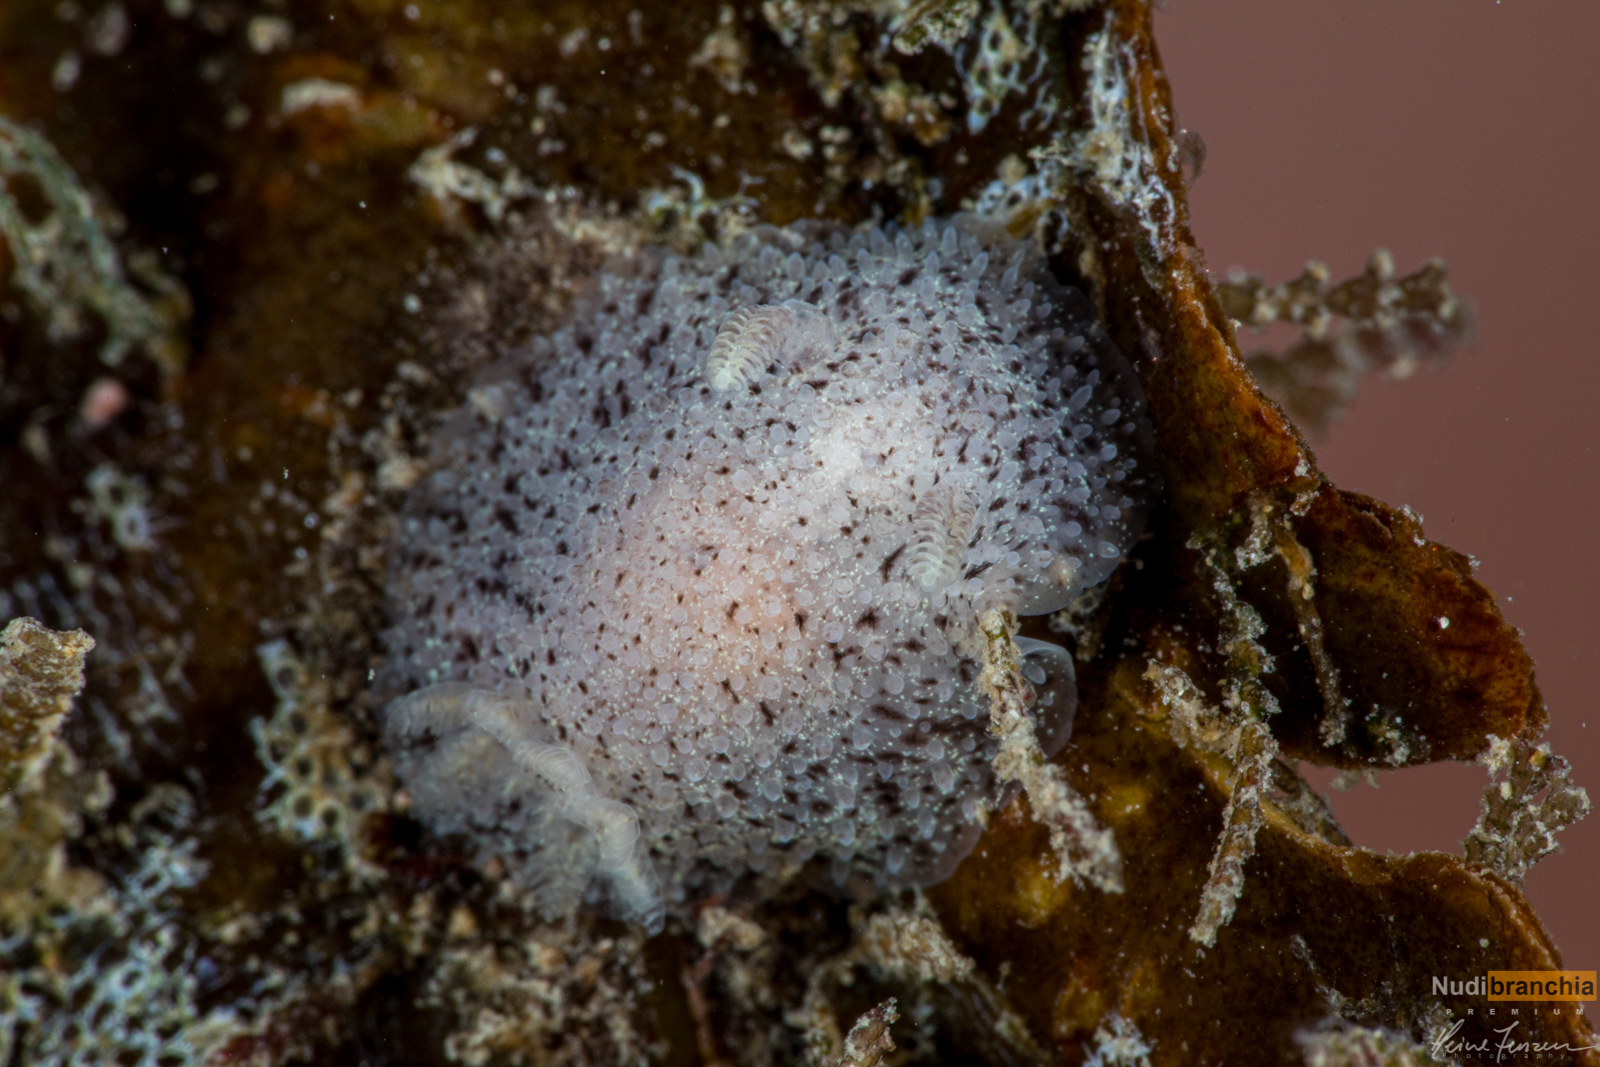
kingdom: Animalia
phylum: Mollusca
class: Gastropoda
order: Nudibranchia
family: Onchidorididae
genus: Acanthodoris
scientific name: Acanthodoris pilosa
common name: Hairy spiny doris
